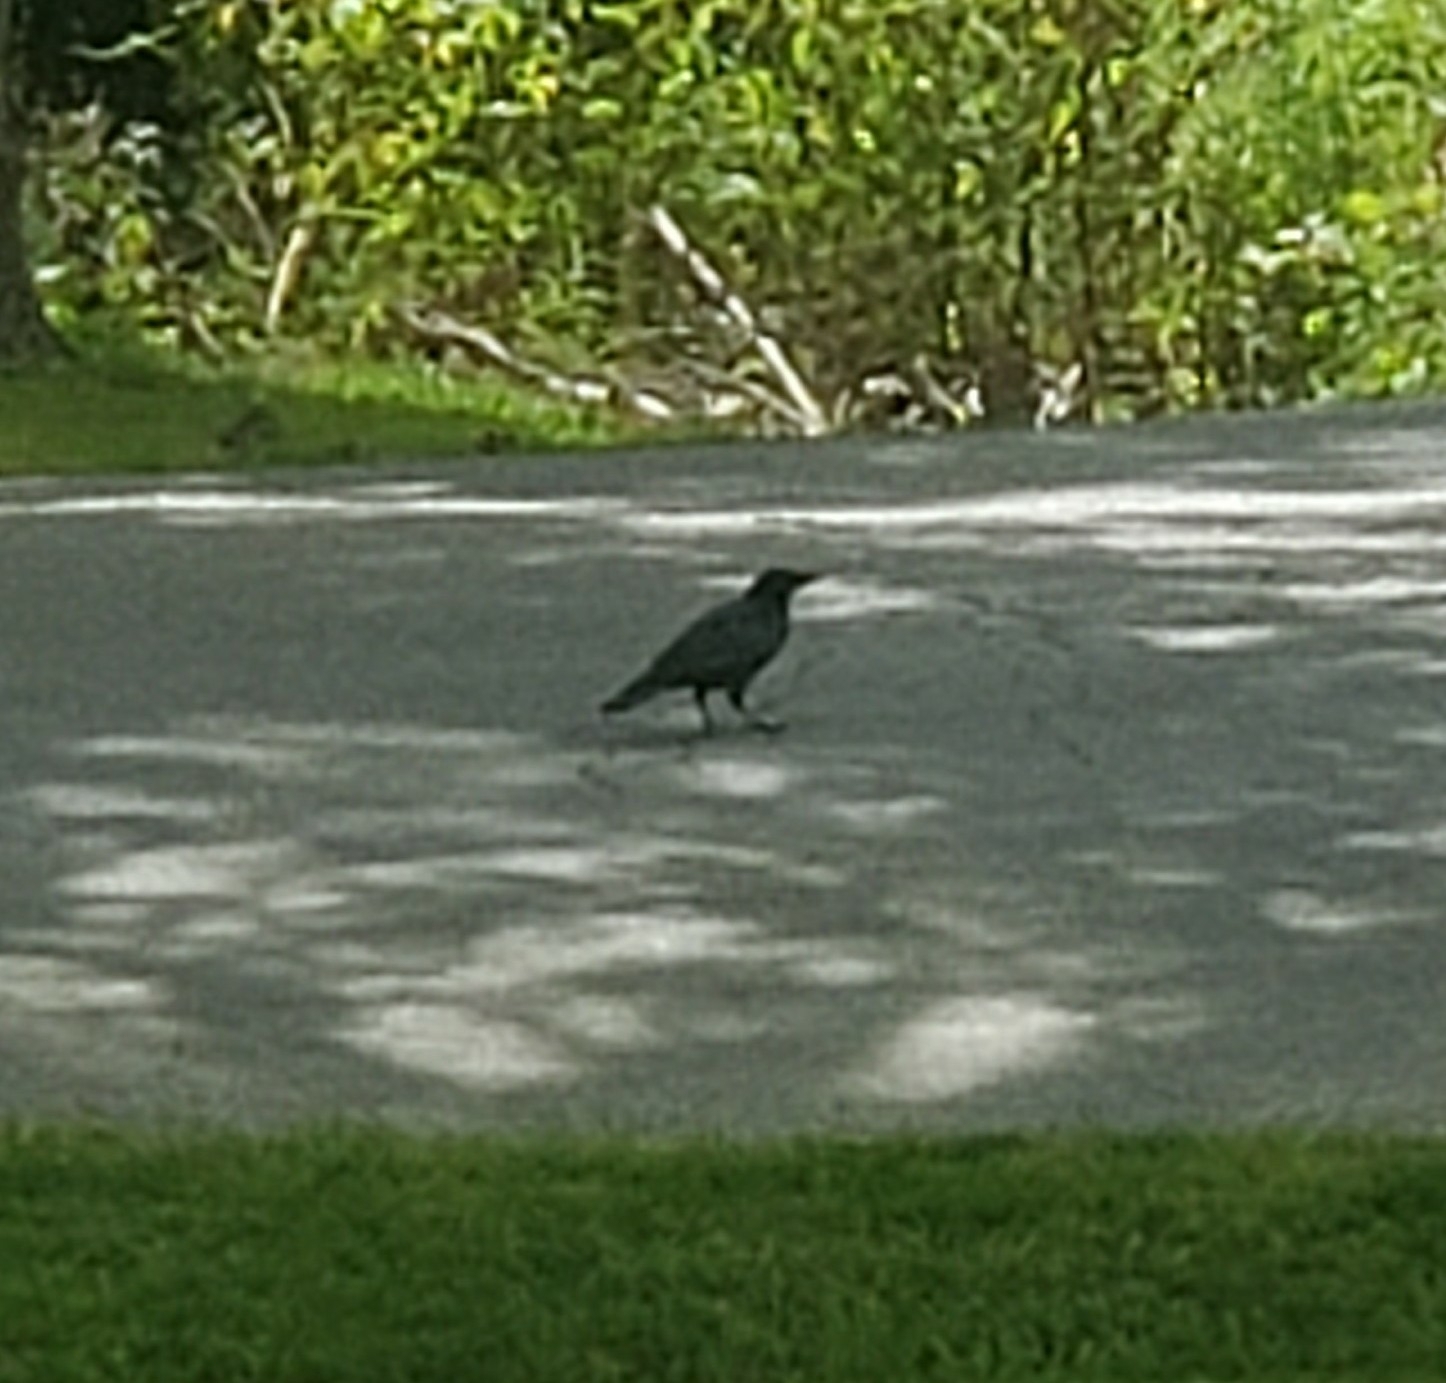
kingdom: Animalia
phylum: Chordata
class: Aves
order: Passeriformes
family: Corvidae
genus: Corvus
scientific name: Corvus brachyrhynchos
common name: American crow
